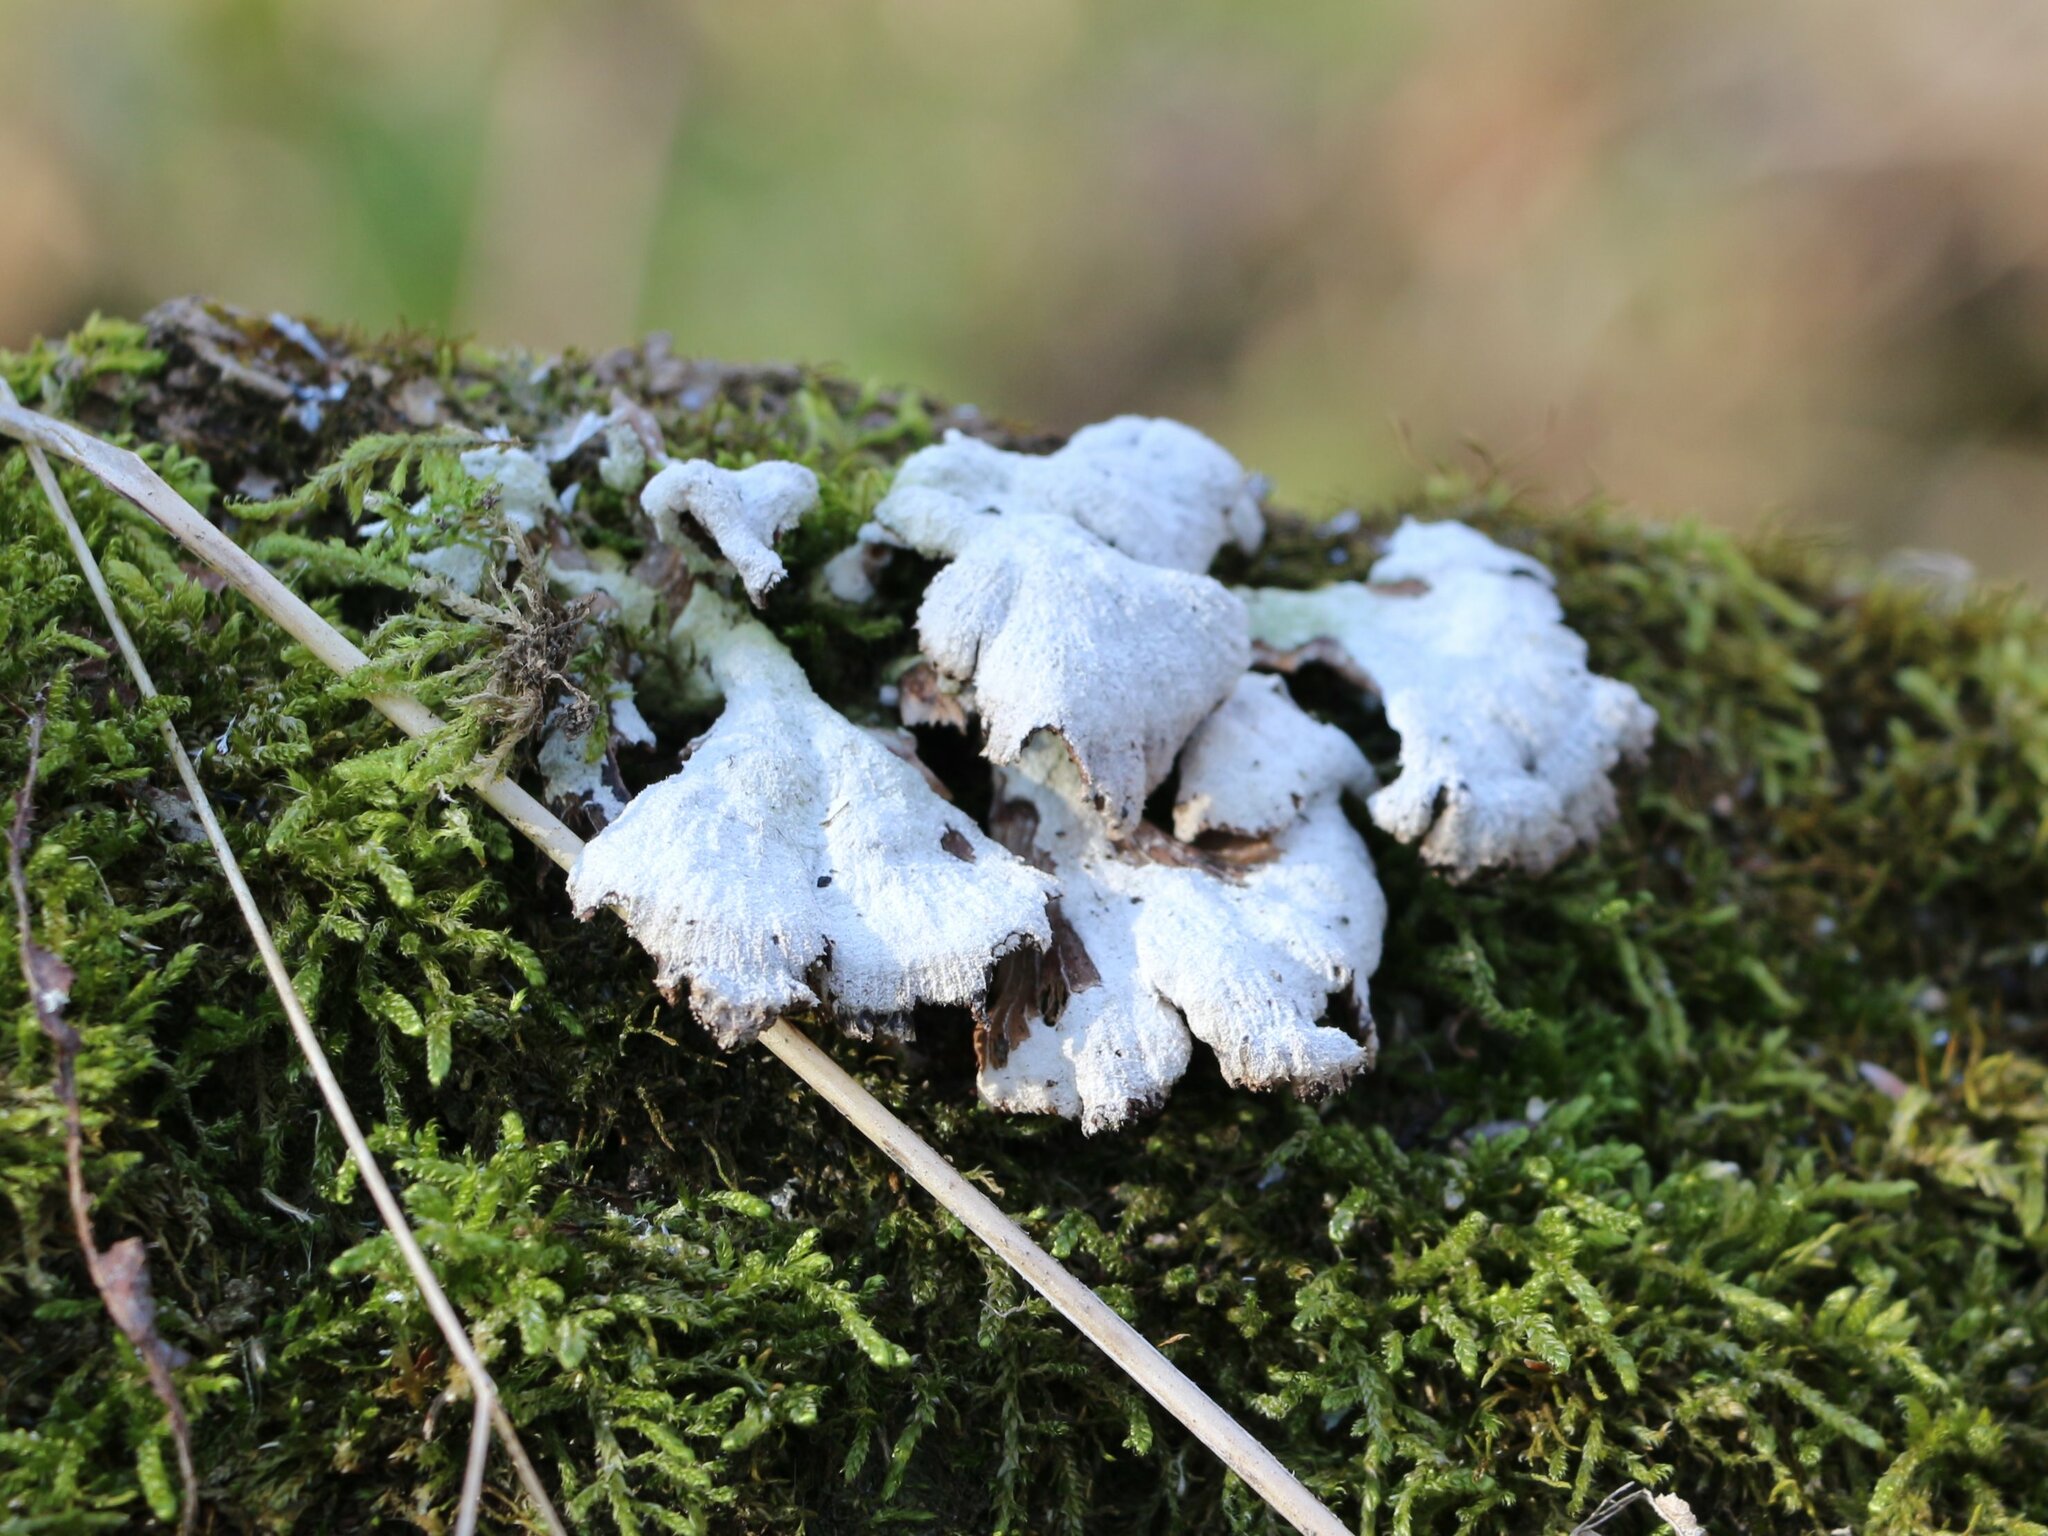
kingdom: Fungi
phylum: Basidiomycota
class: Agaricomycetes
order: Agaricales
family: Schizophyllaceae
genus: Schizophyllum
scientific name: Schizophyllum commune
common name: Common porecrust
